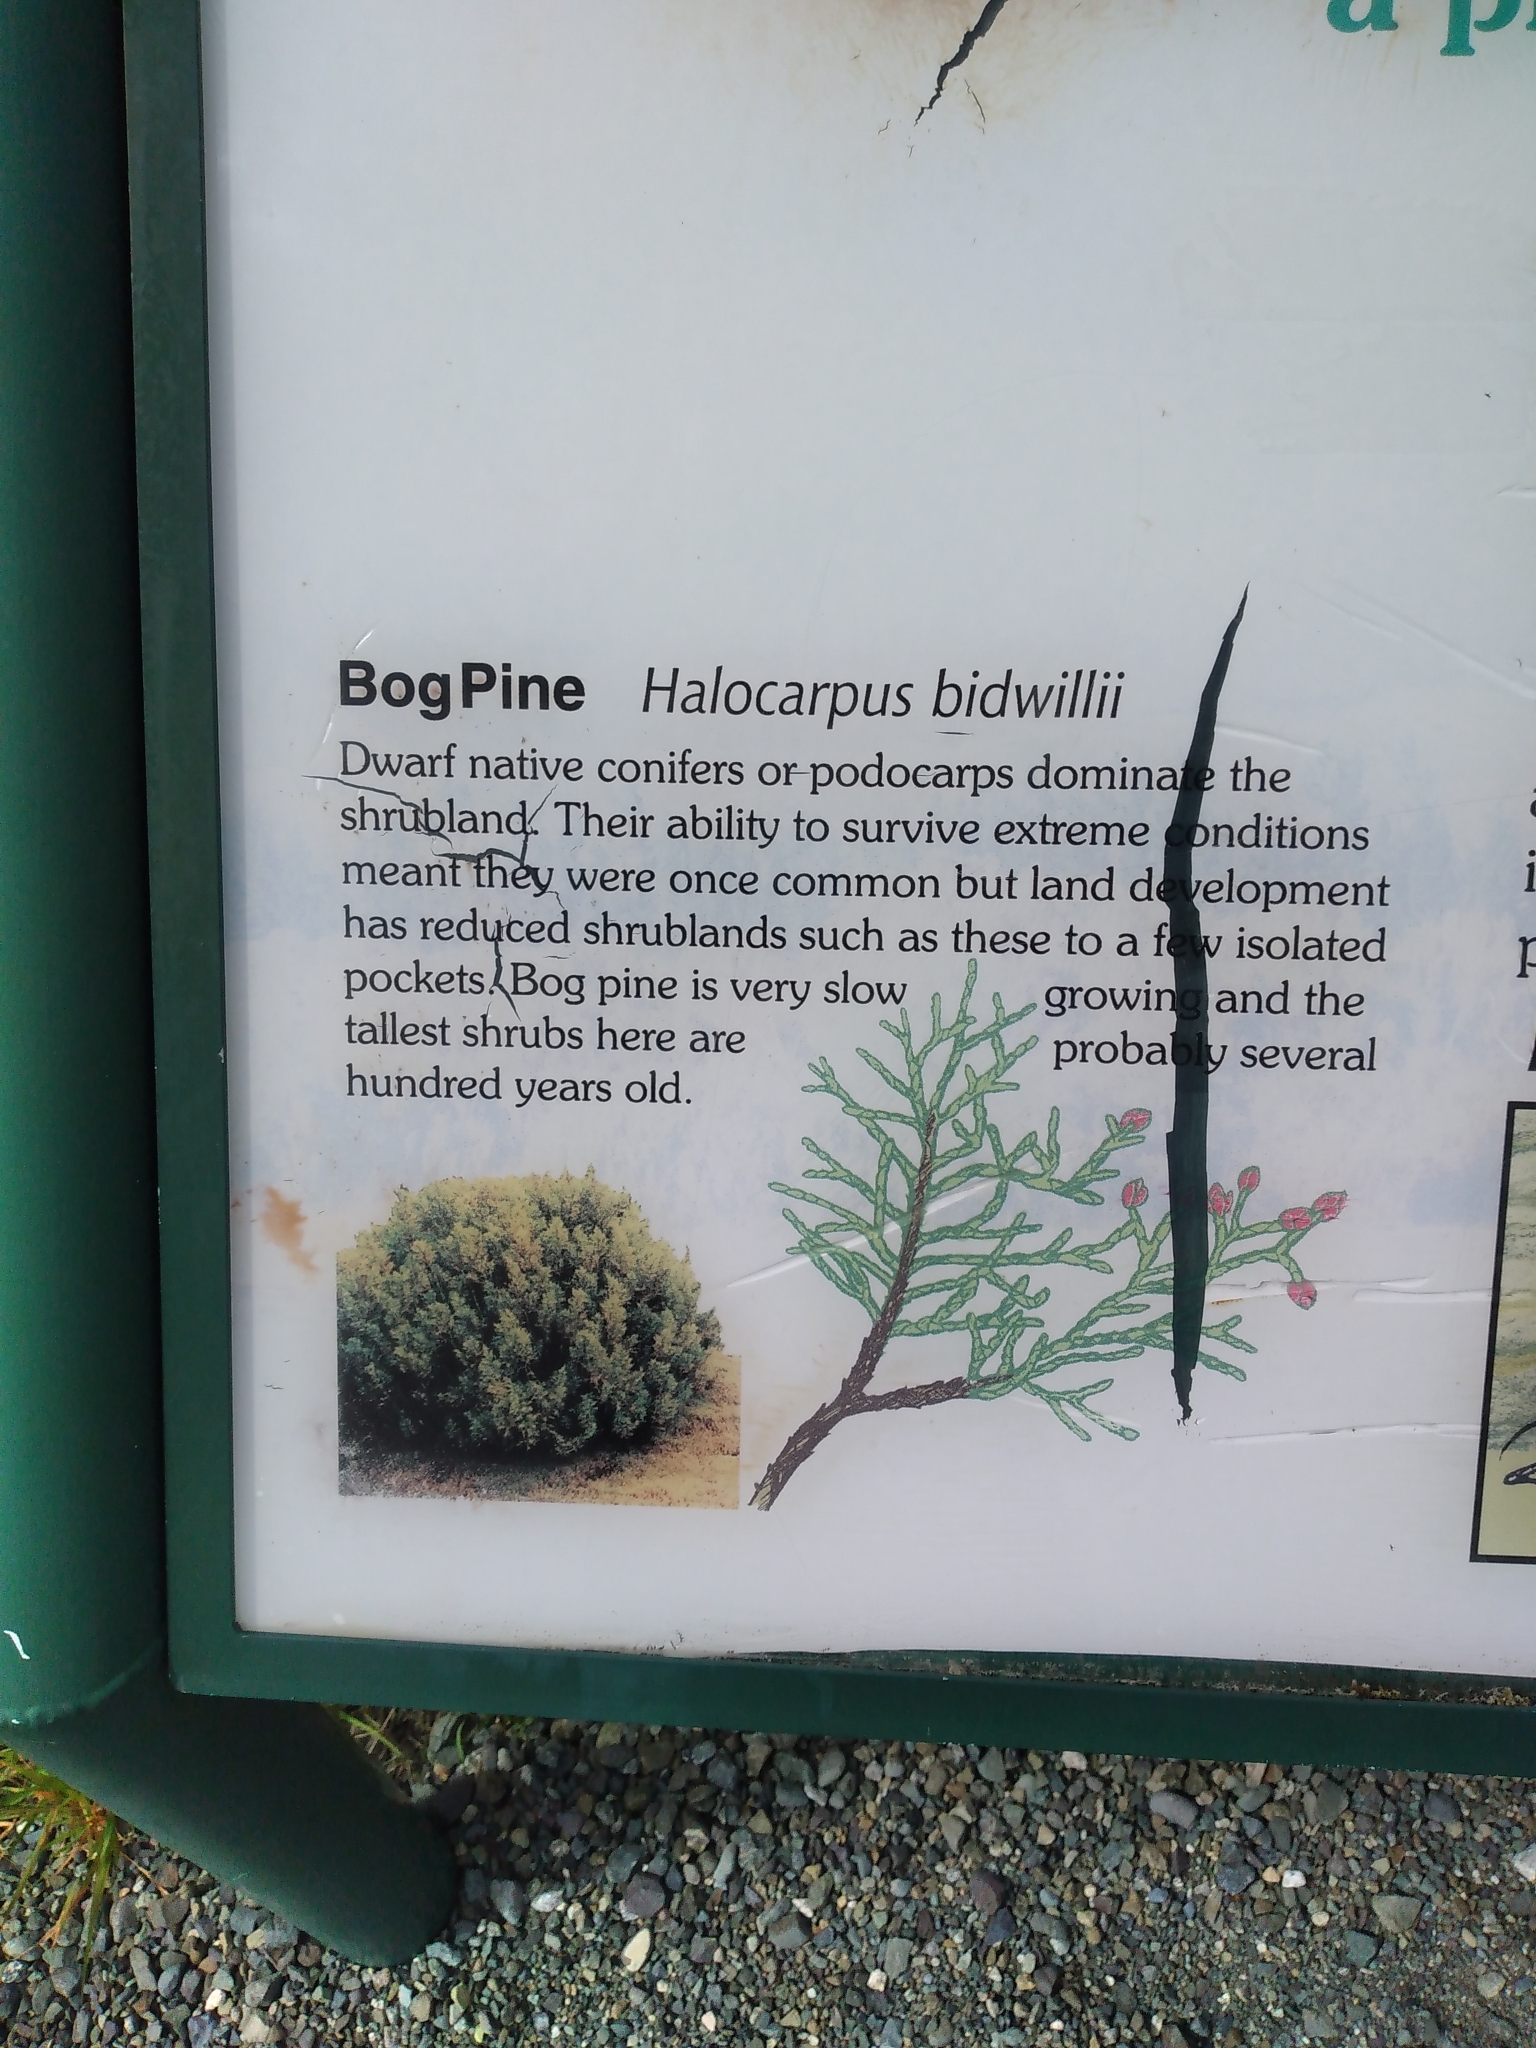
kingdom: Plantae
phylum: Tracheophyta
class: Pinopsida
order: Pinales
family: Podocarpaceae
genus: Halocarpus
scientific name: Halocarpus bidwillii
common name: Bog pine
